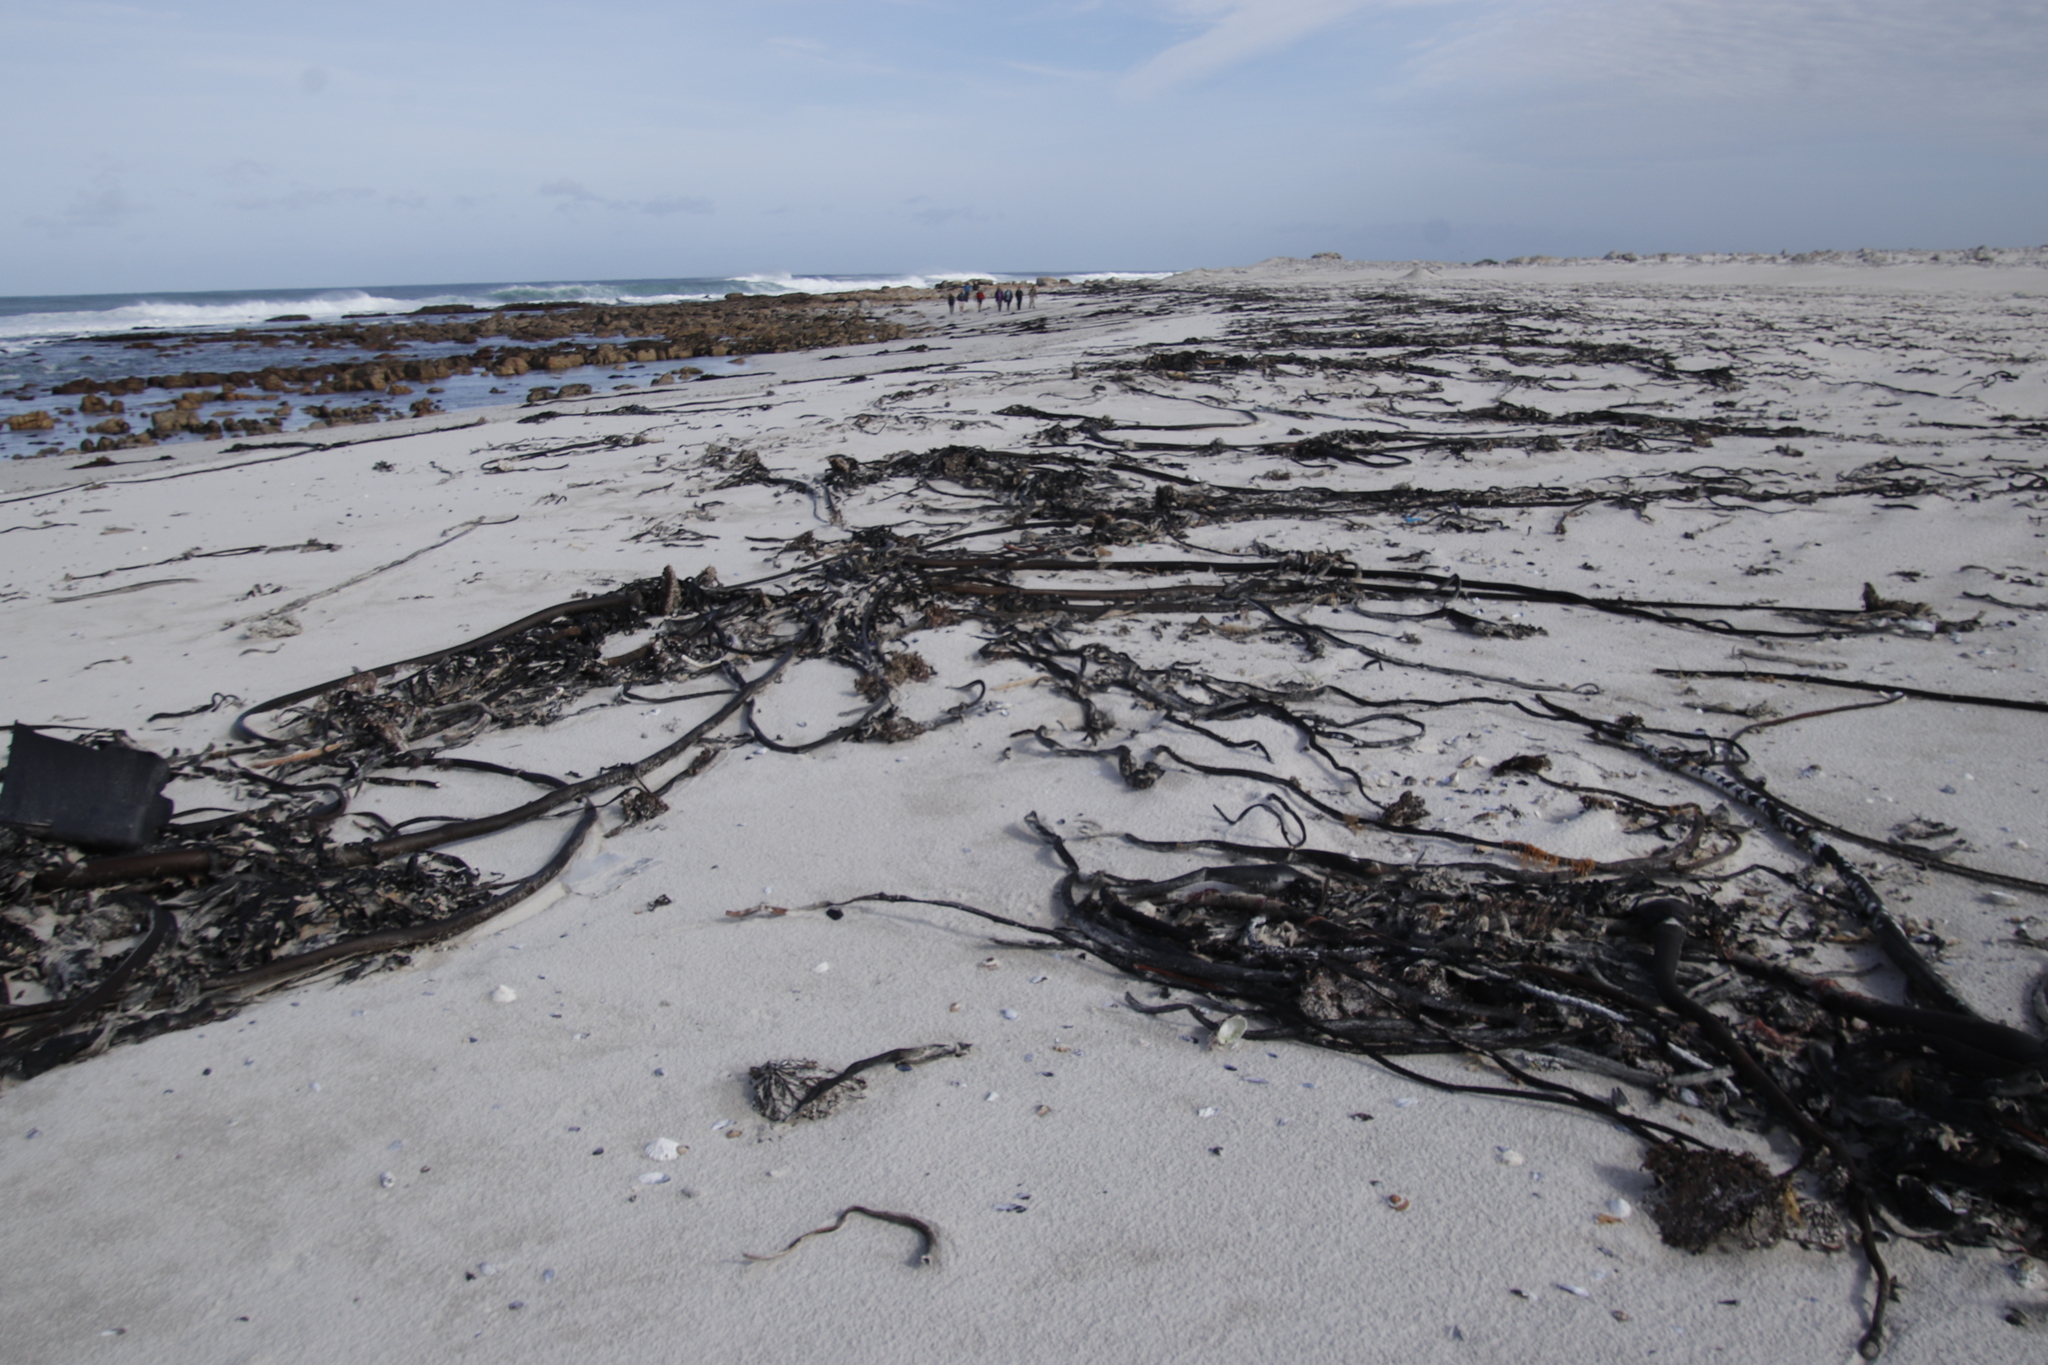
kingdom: Chromista
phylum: Ochrophyta
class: Phaeophyceae
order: Laminariales
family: Lessoniaceae
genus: Ecklonia
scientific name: Ecklonia
